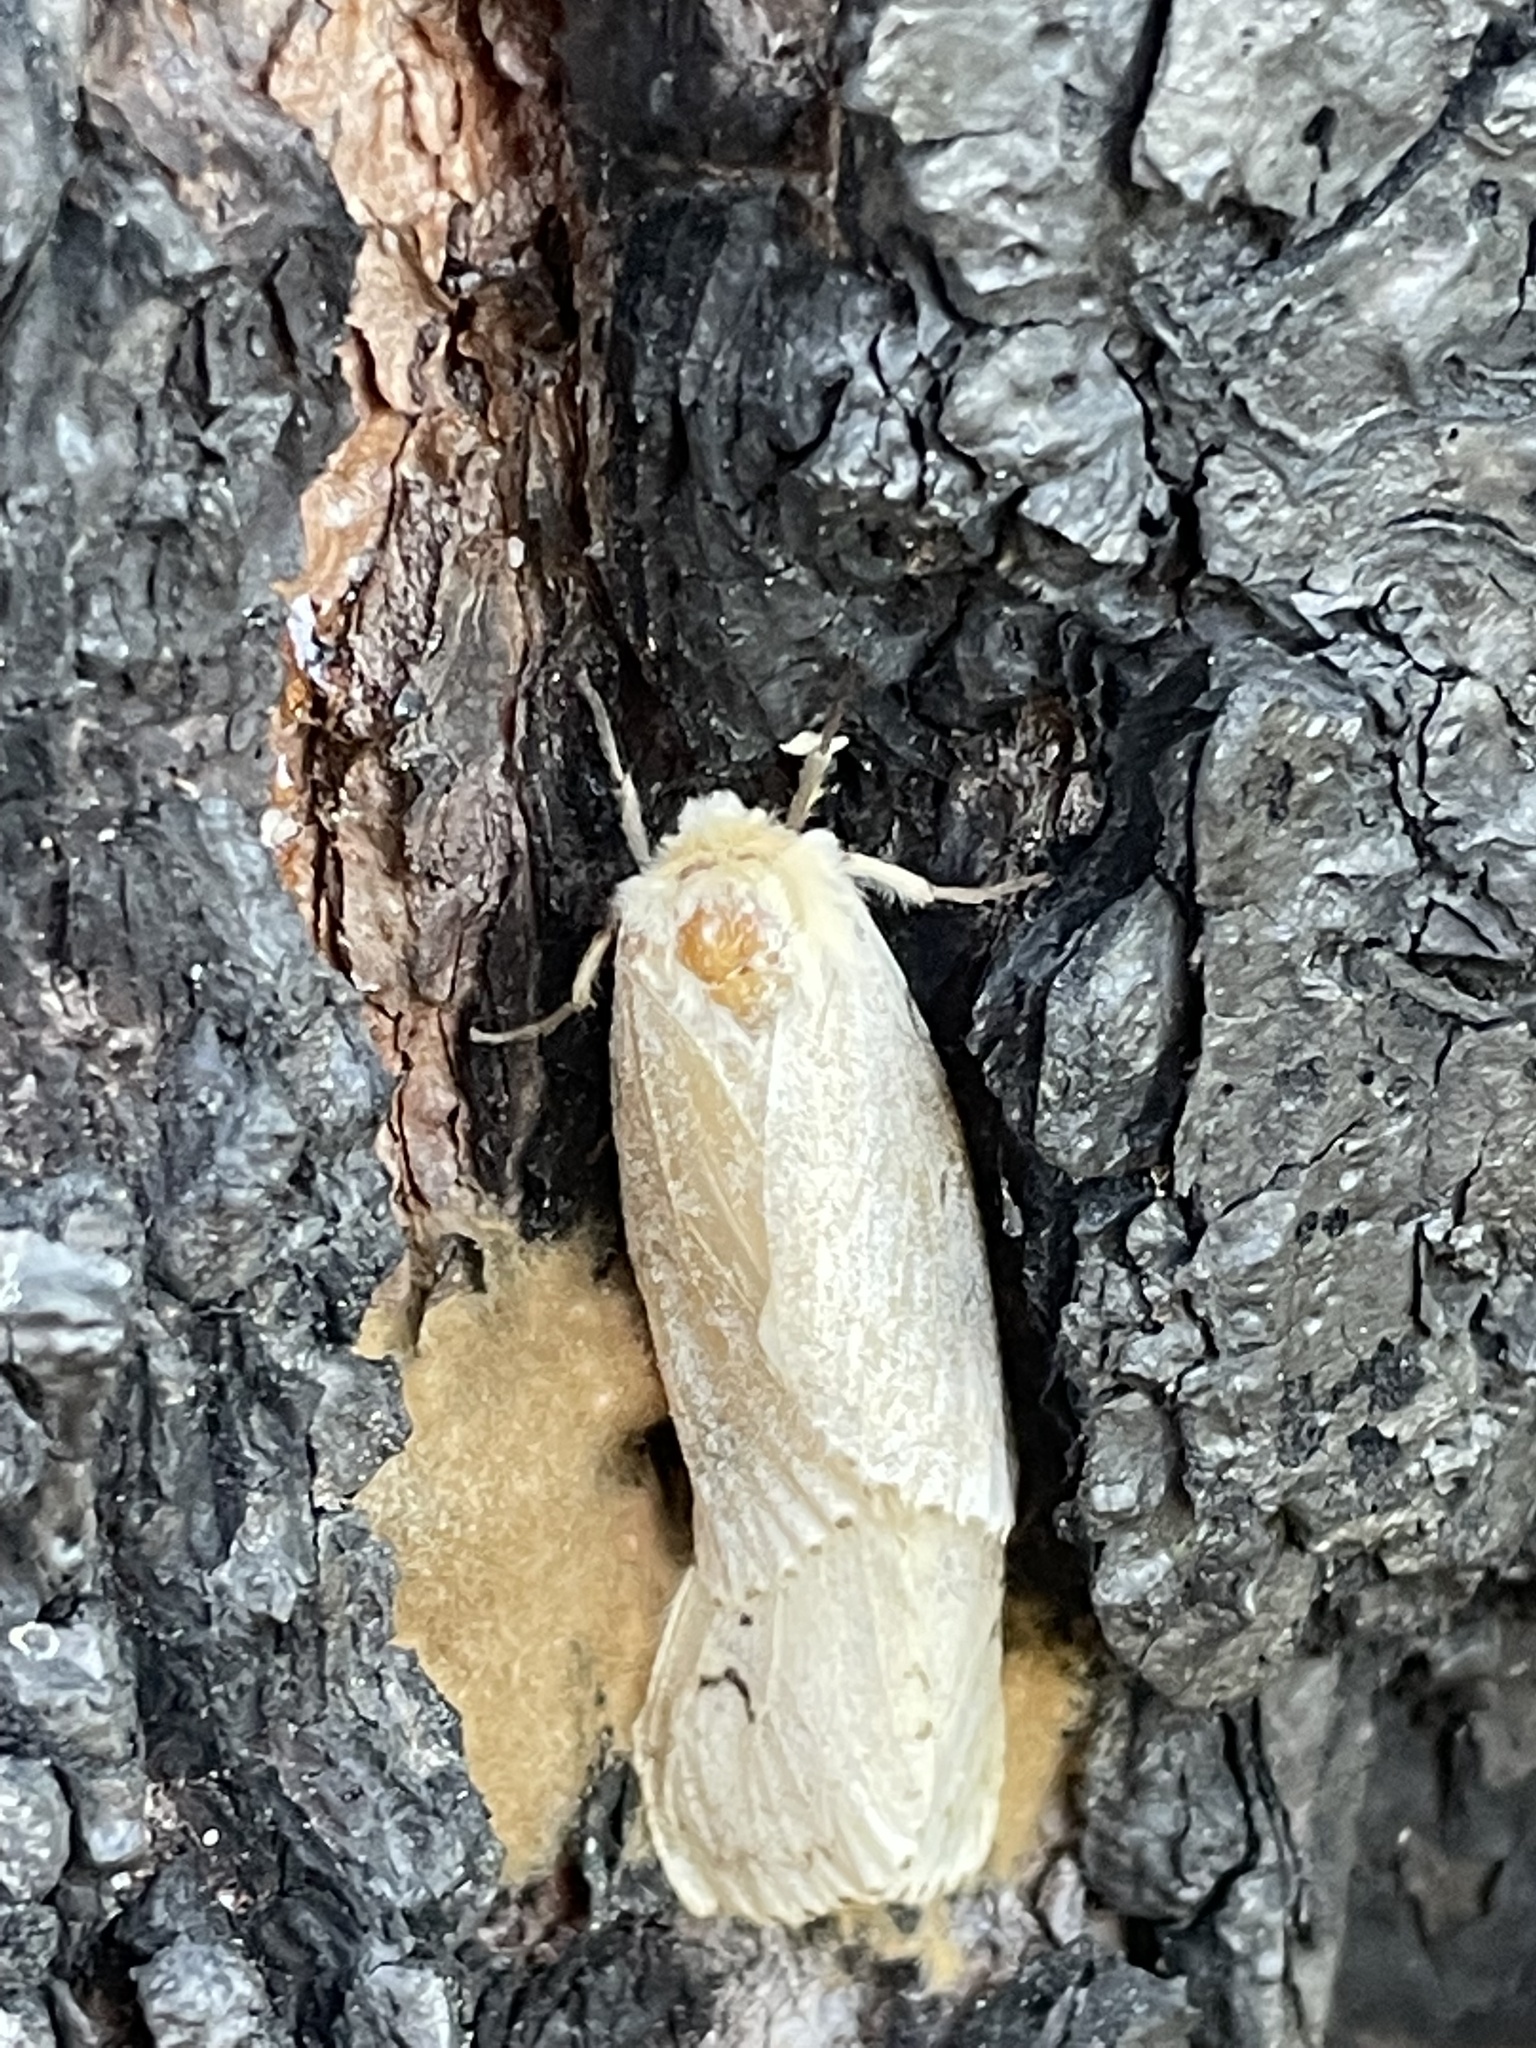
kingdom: Animalia
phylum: Arthropoda
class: Insecta
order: Lepidoptera
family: Erebidae
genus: Lymantria
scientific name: Lymantria dispar
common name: Gypsy moth
